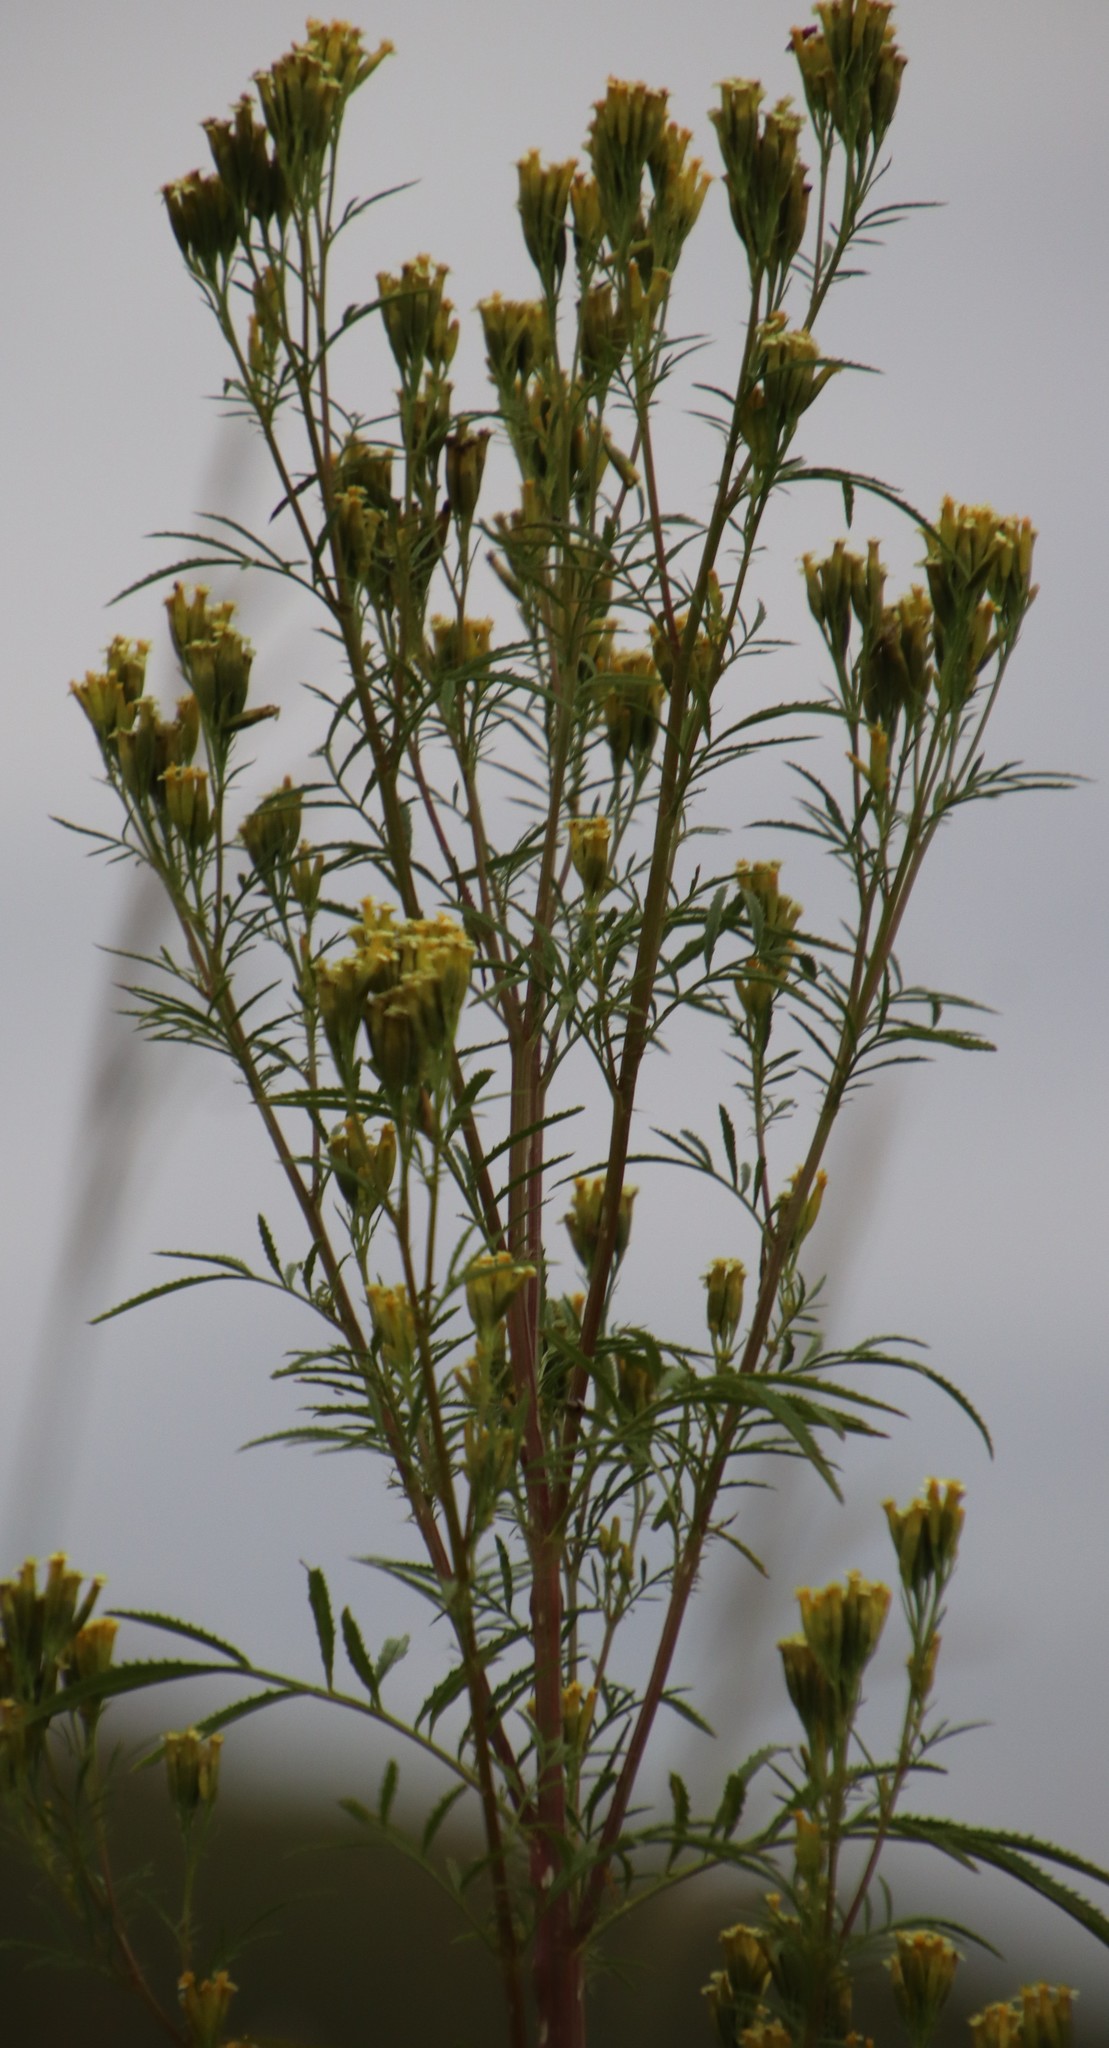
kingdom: Plantae
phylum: Tracheophyta
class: Magnoliopsida
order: Asterales
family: Asteraceae
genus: Tagetes
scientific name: Tagetes minuta
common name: Muster john henry
